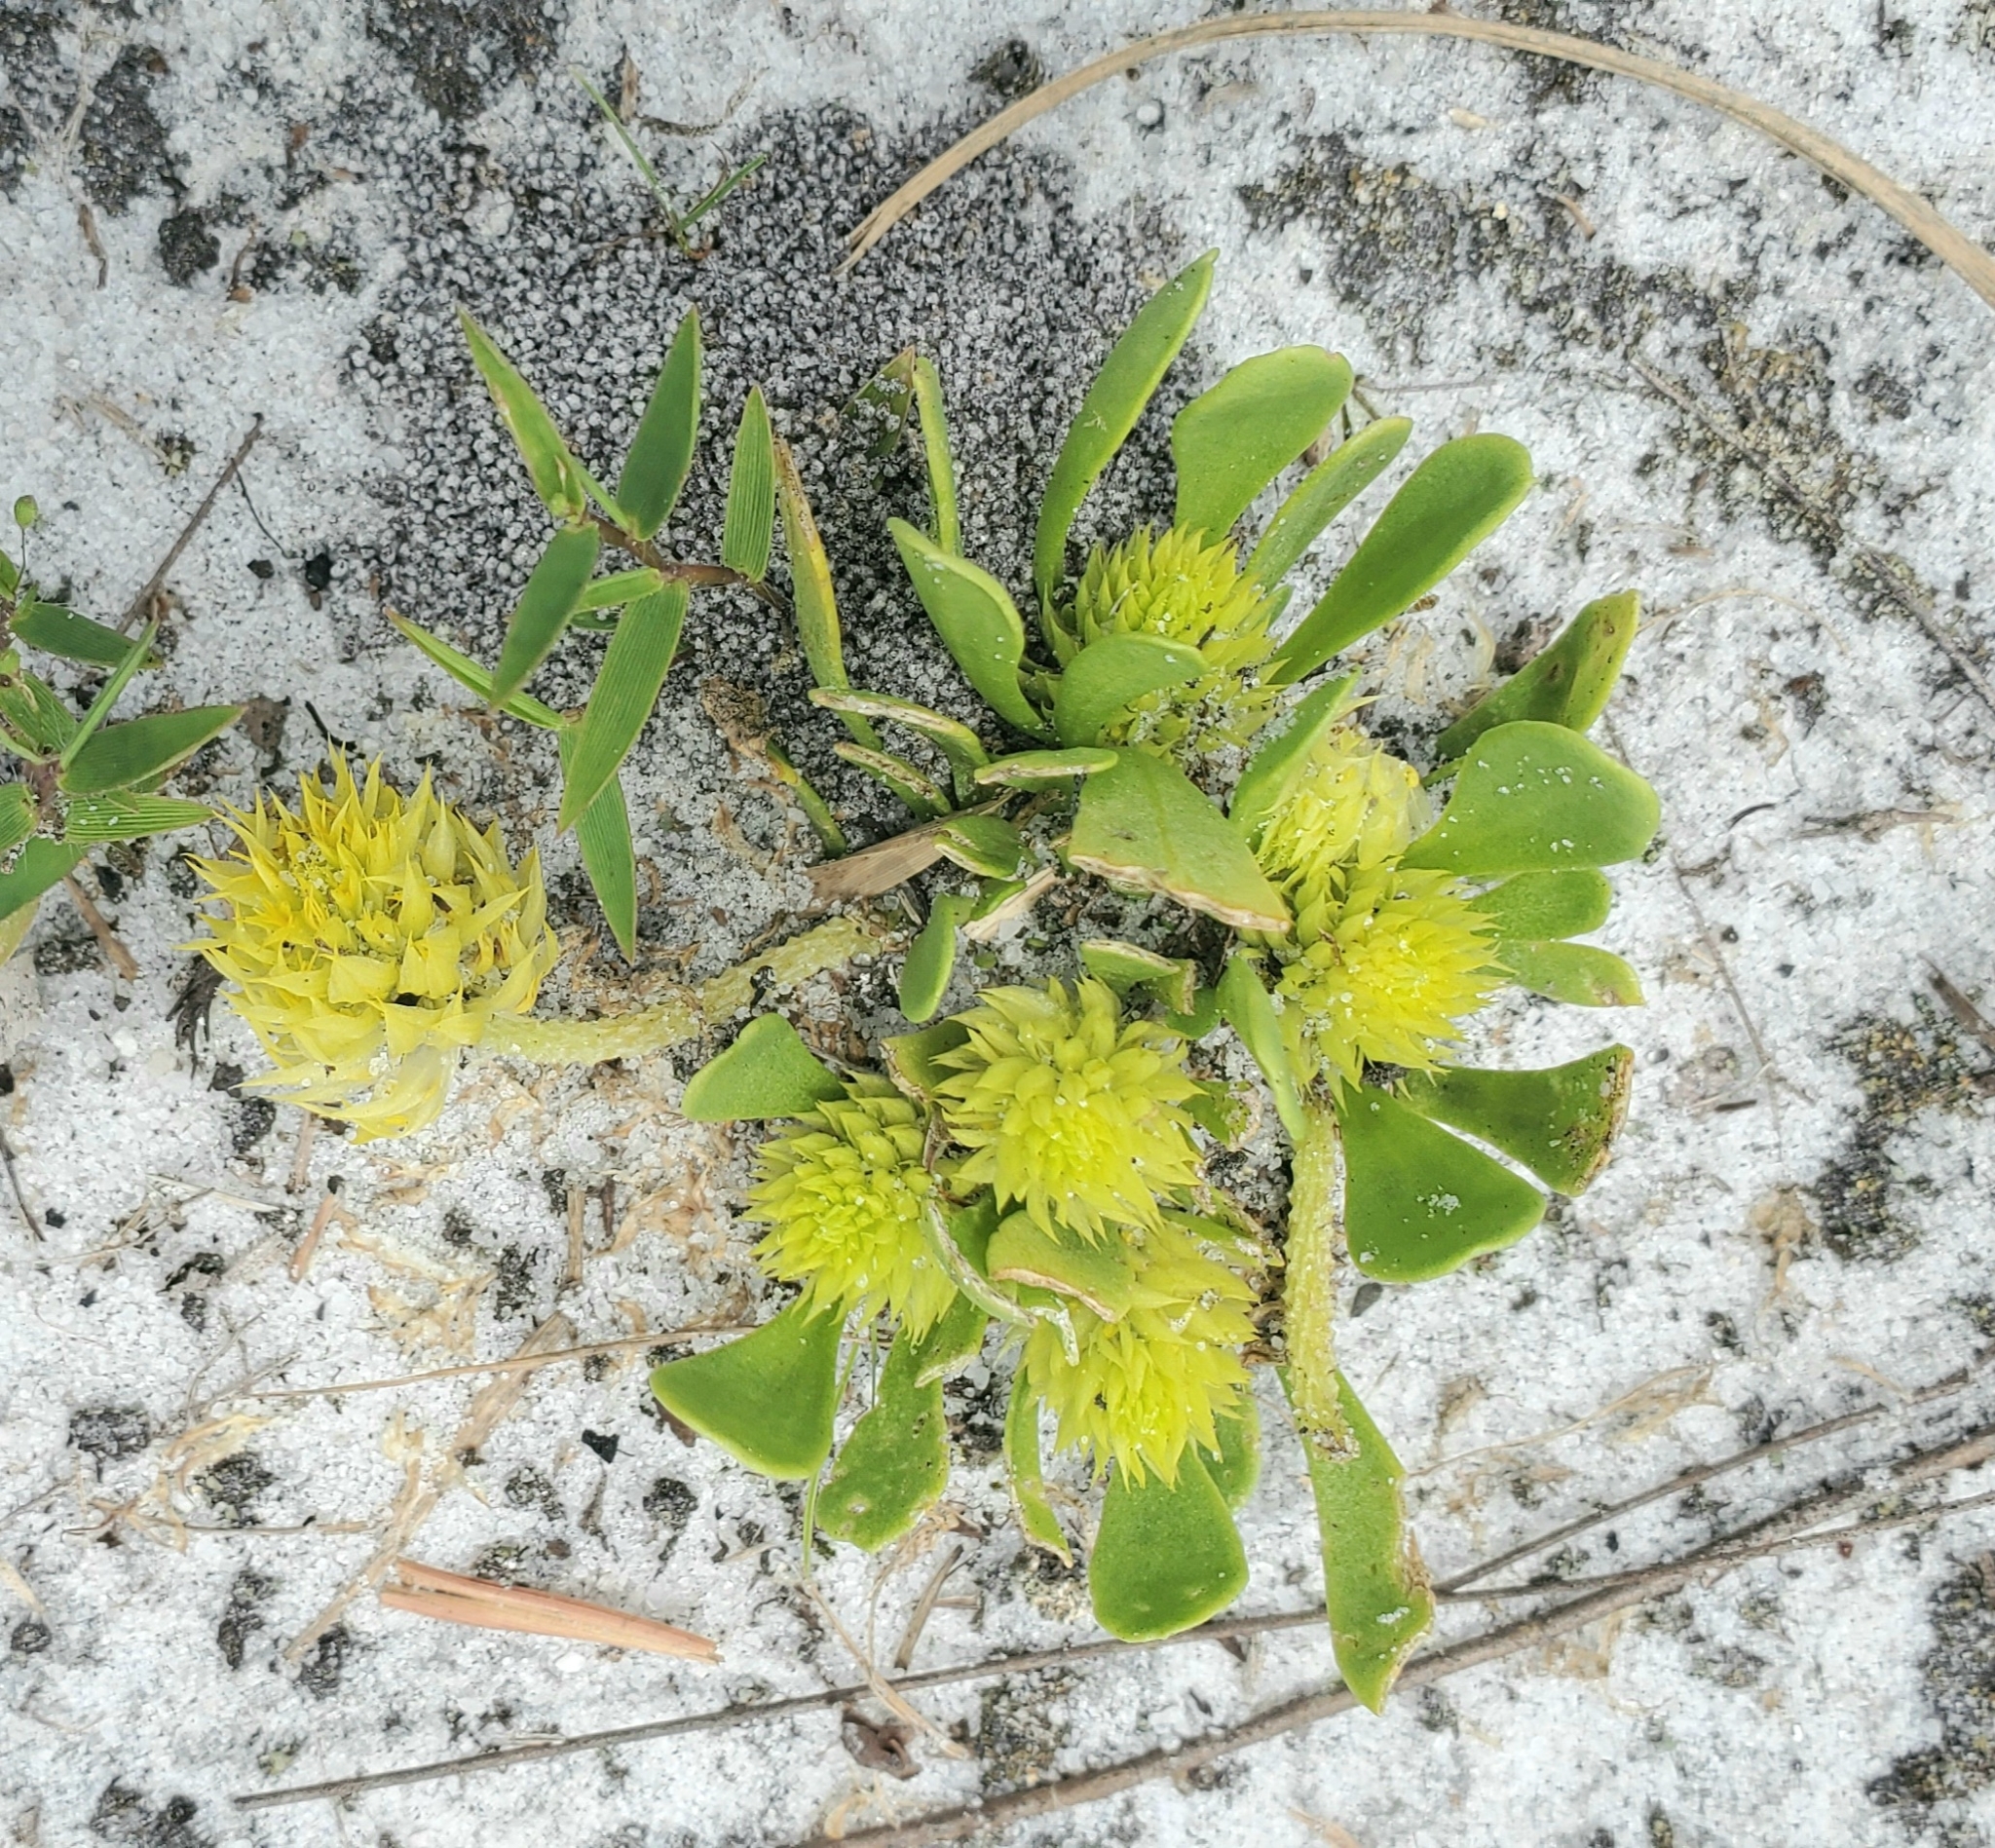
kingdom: Plantae
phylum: Tracheophyta
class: Magnoliopsida
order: Fabales
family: Polygalaceae
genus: Polygala
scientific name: Polygala nana
